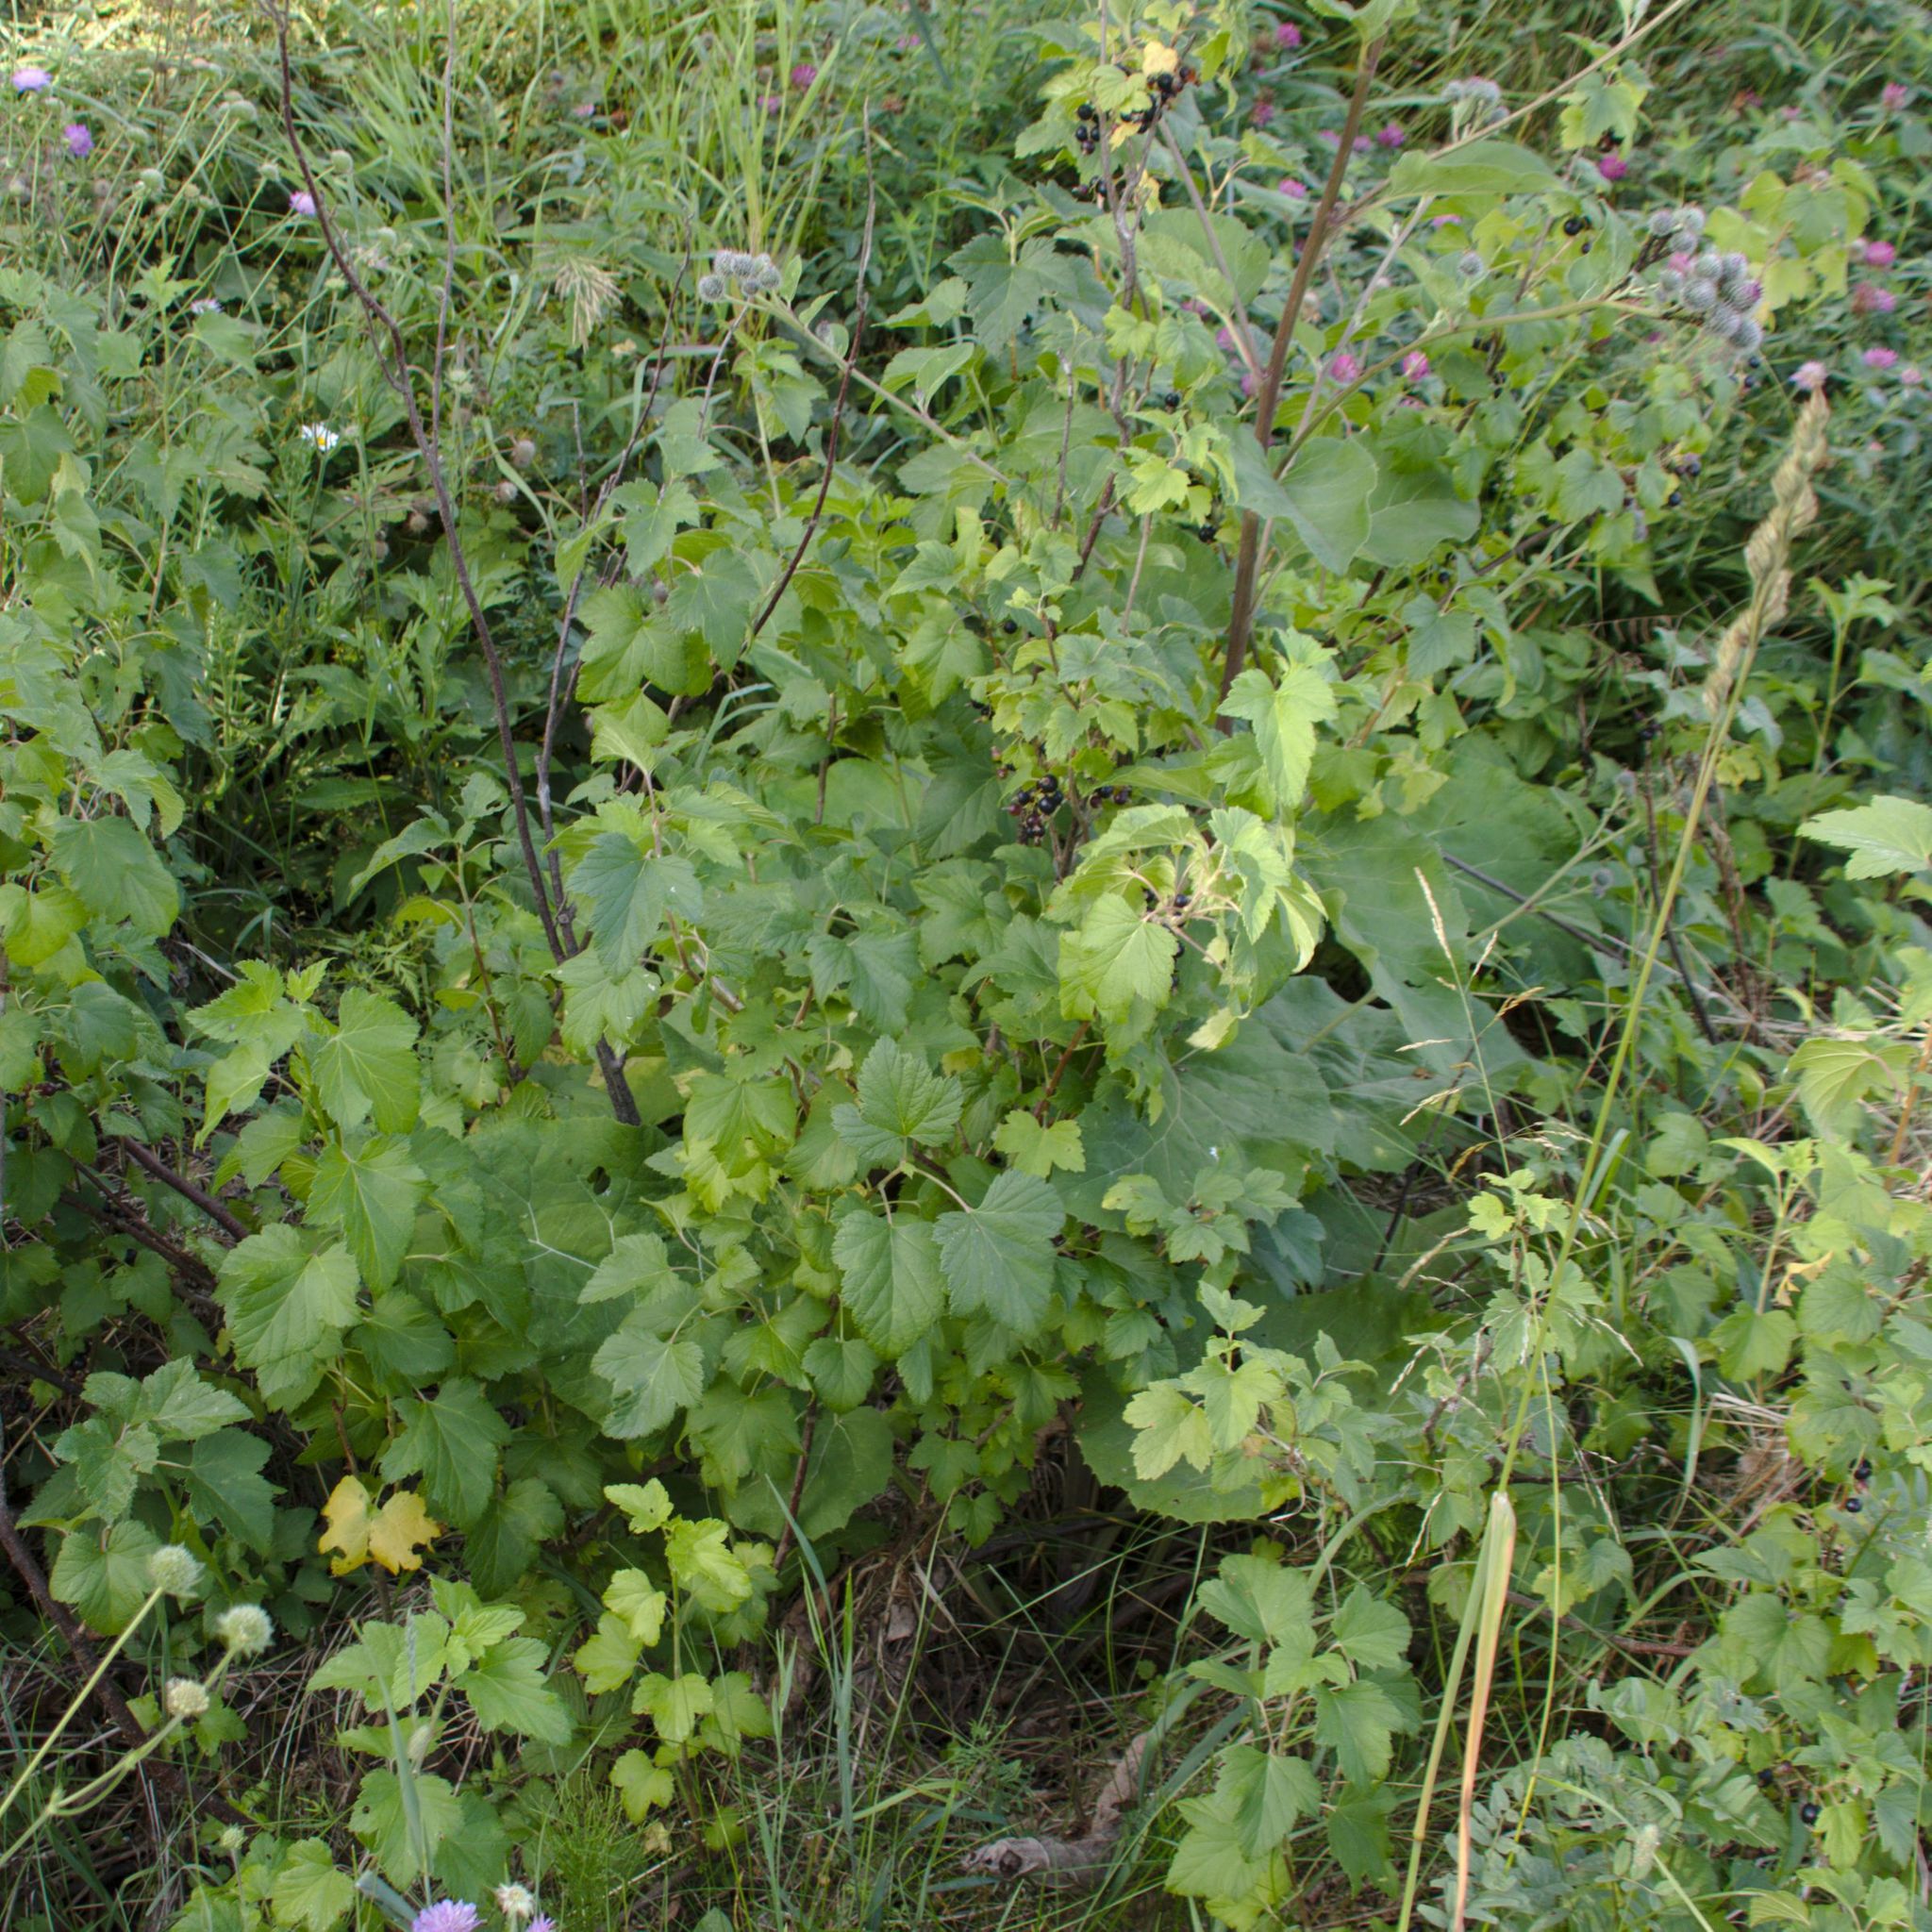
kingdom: Plantae
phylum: Tracheophyta
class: Magnoliopsida
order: Saxifragales
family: Grossulariaceae
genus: Ribes
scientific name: Ribes nigrum
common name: Black currant
